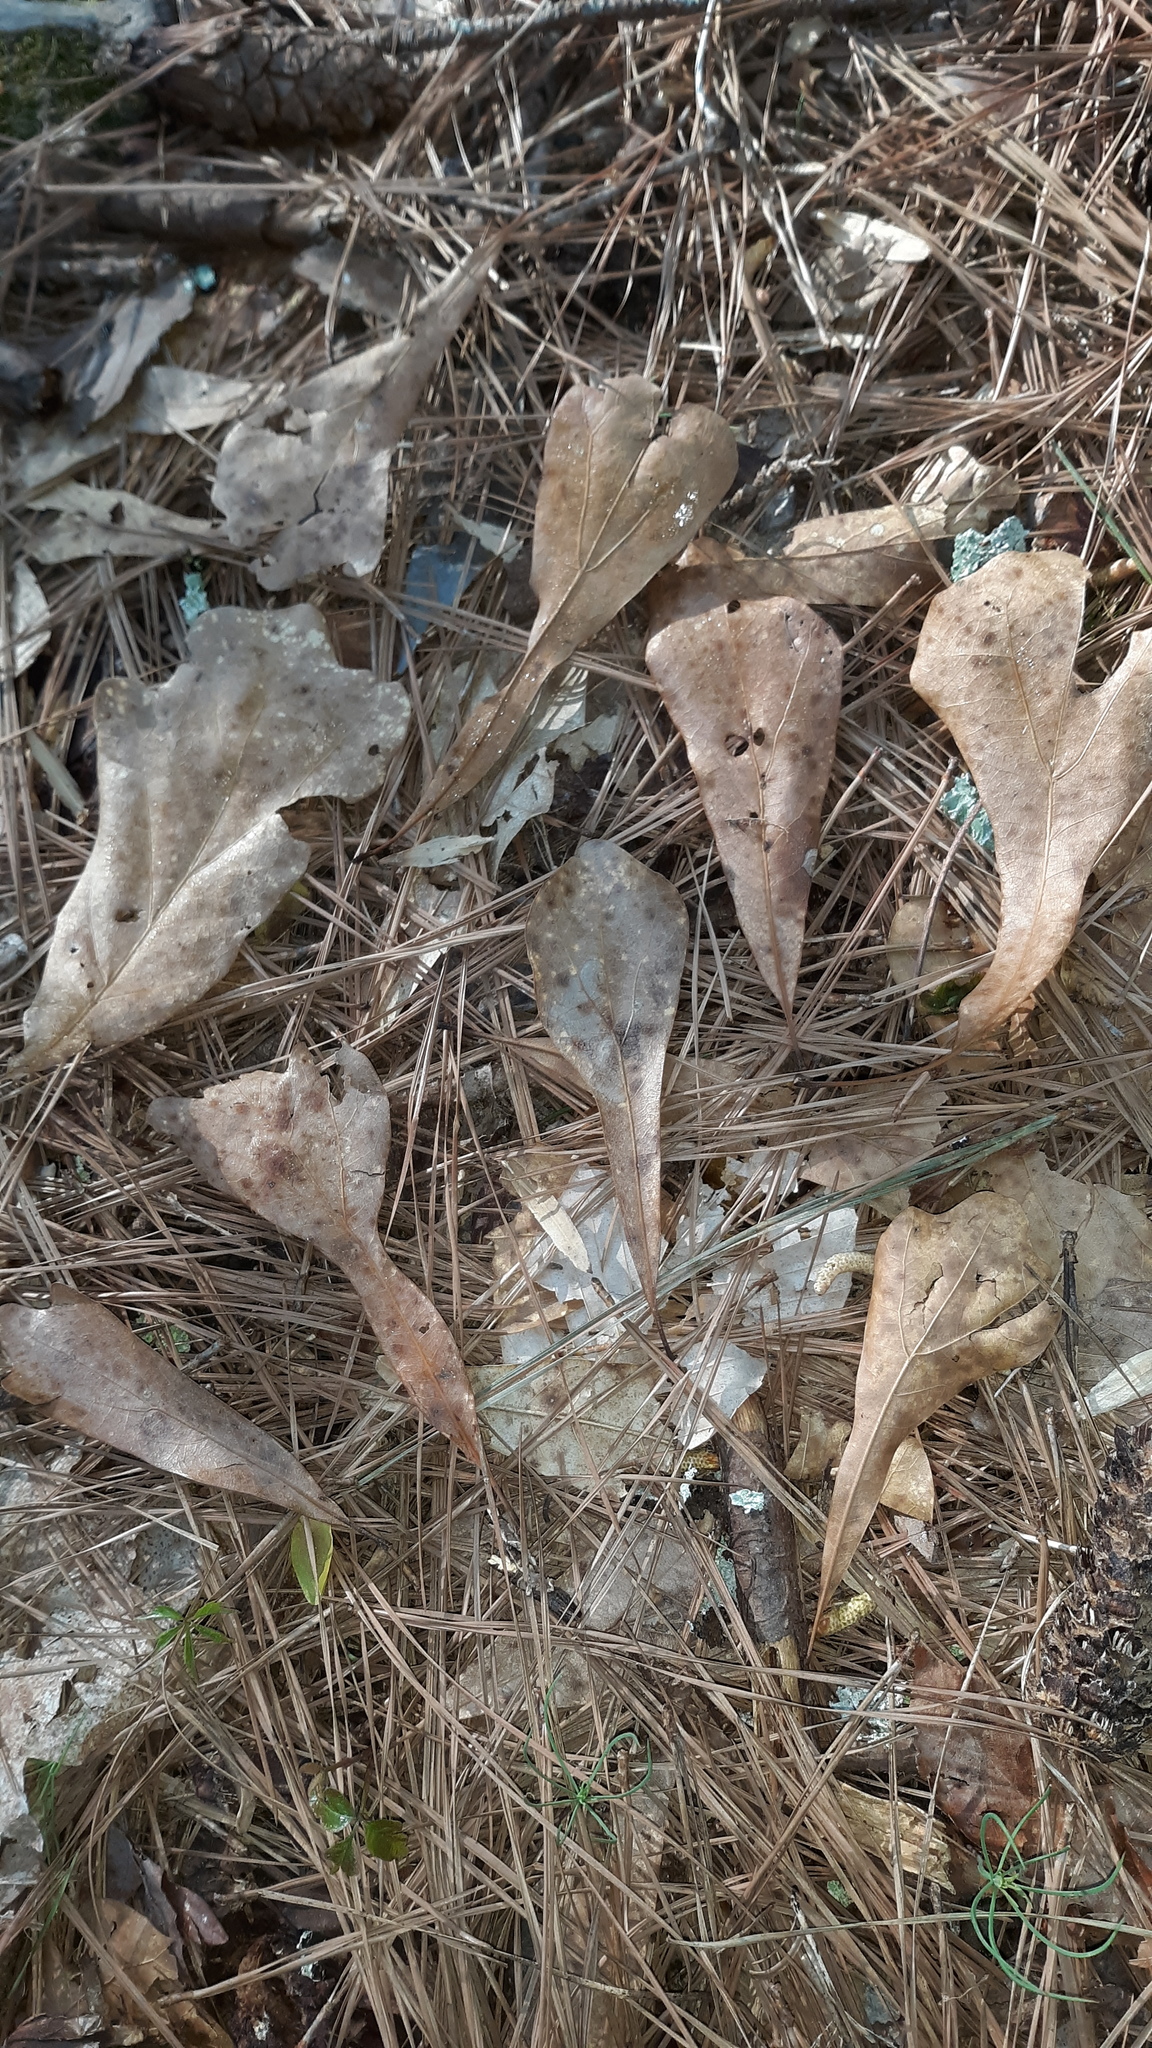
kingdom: Plantae
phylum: Tracheophyta
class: Magnoliopsida
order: Fagales
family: Fagaceae
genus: Quercus
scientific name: Quercus nigra
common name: Water oak
